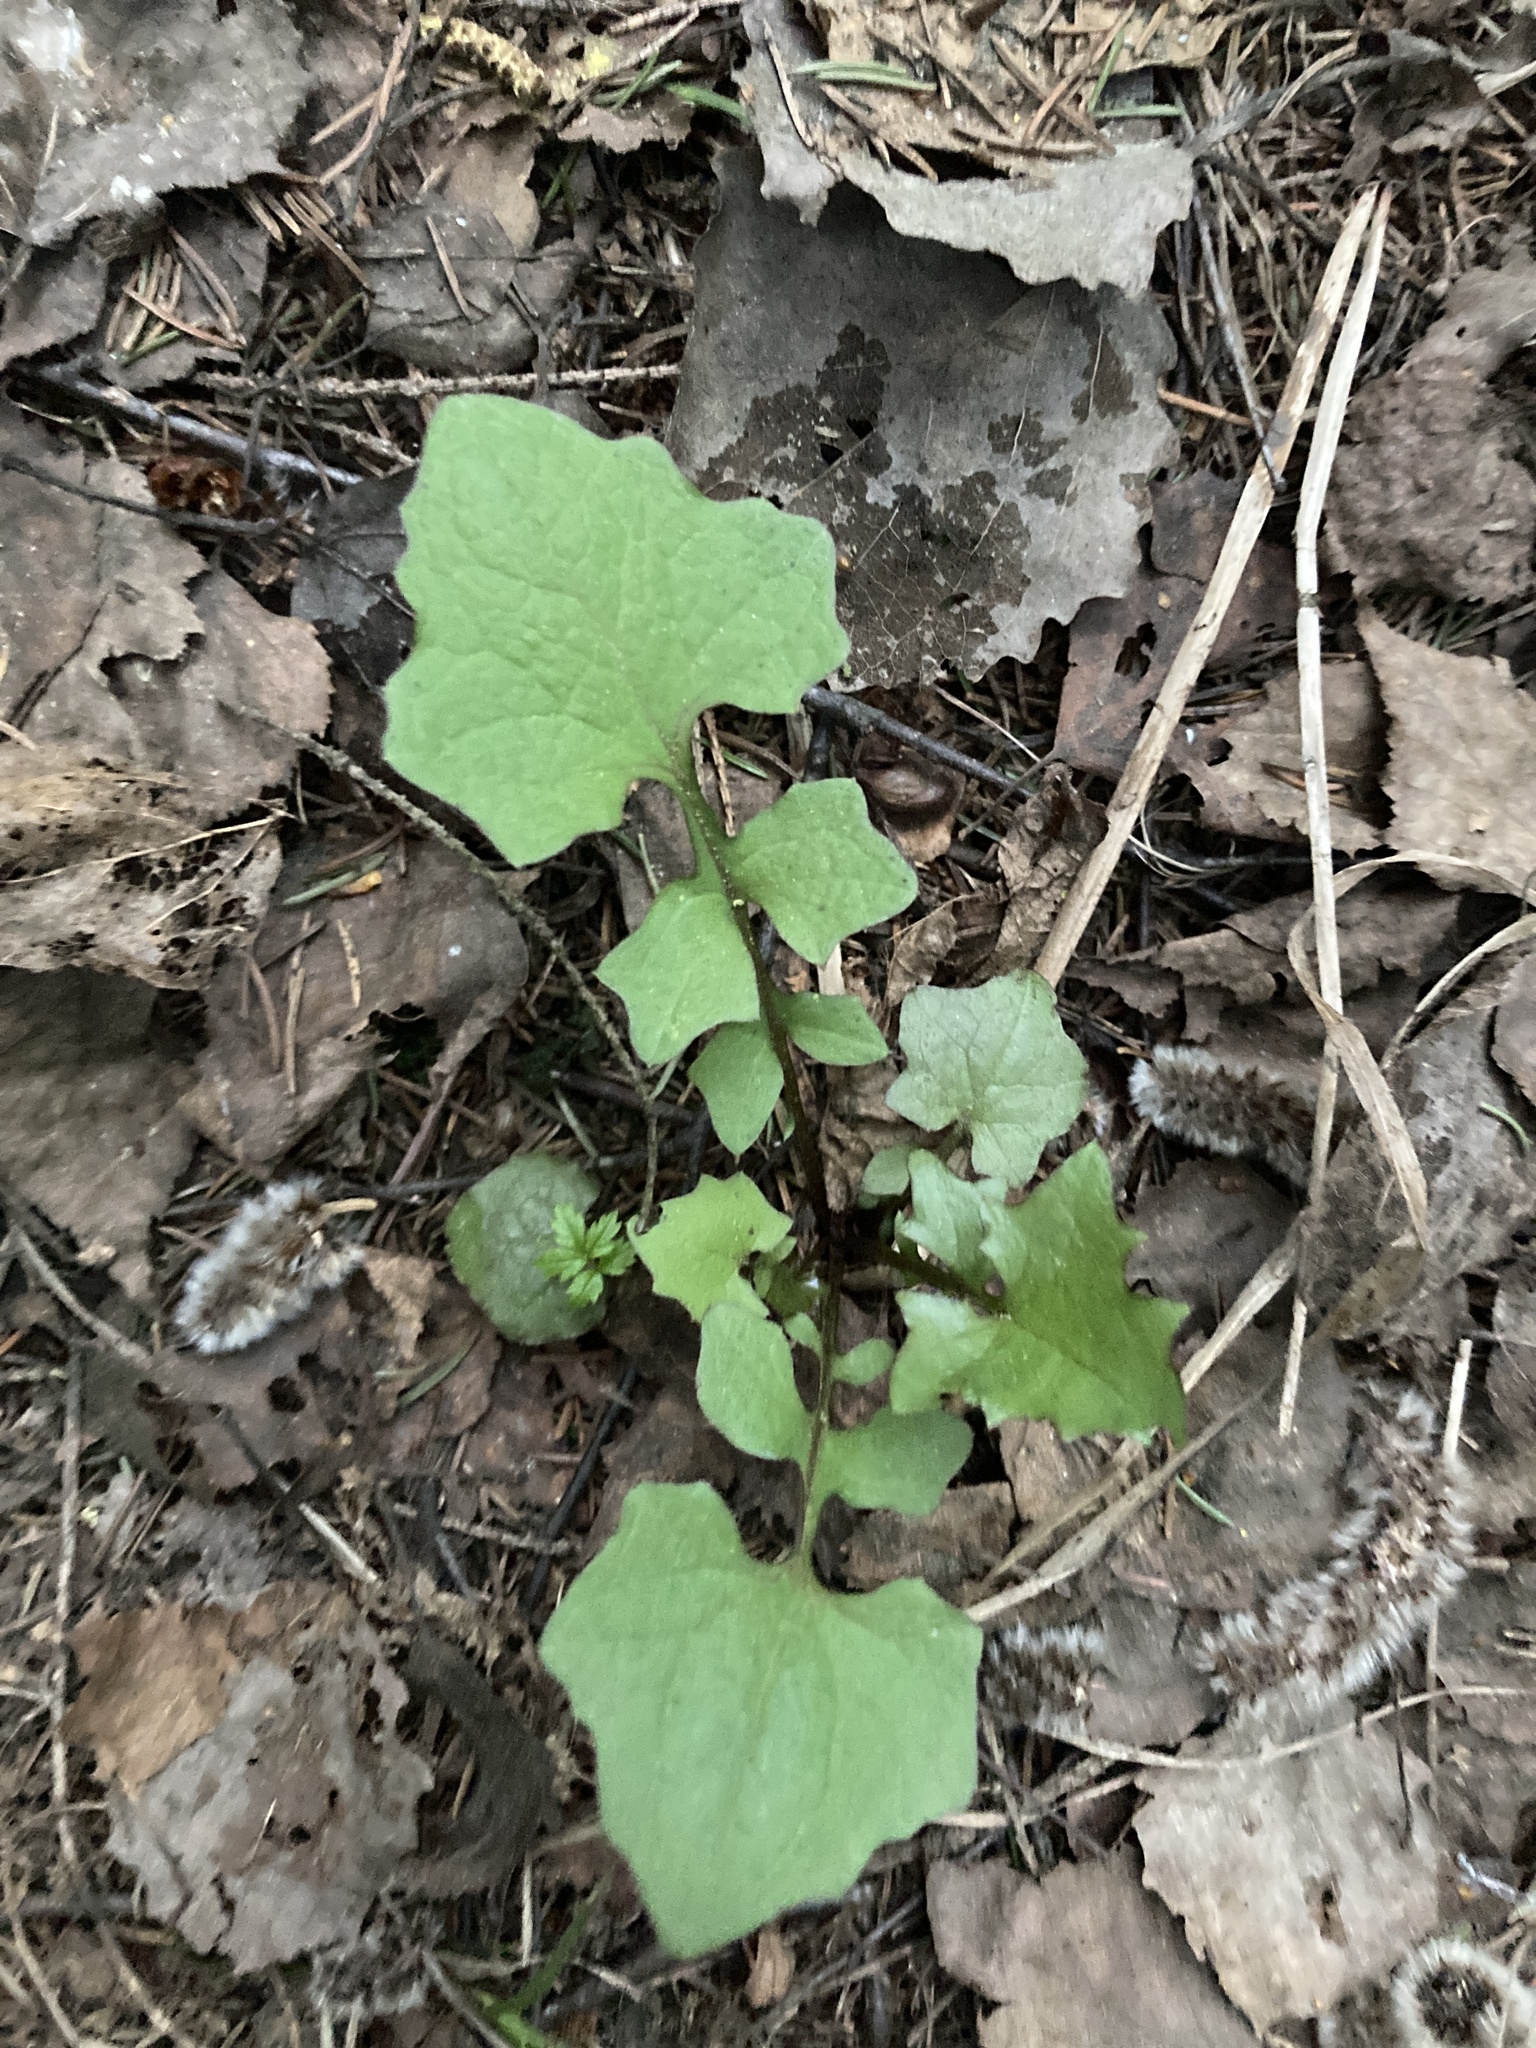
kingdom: Plantae
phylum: Tracheophyta
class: Magnoliopsida
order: Asterales
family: Asteraceae
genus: Mycelis
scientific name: Mycelis muralis
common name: Wall lettuce
